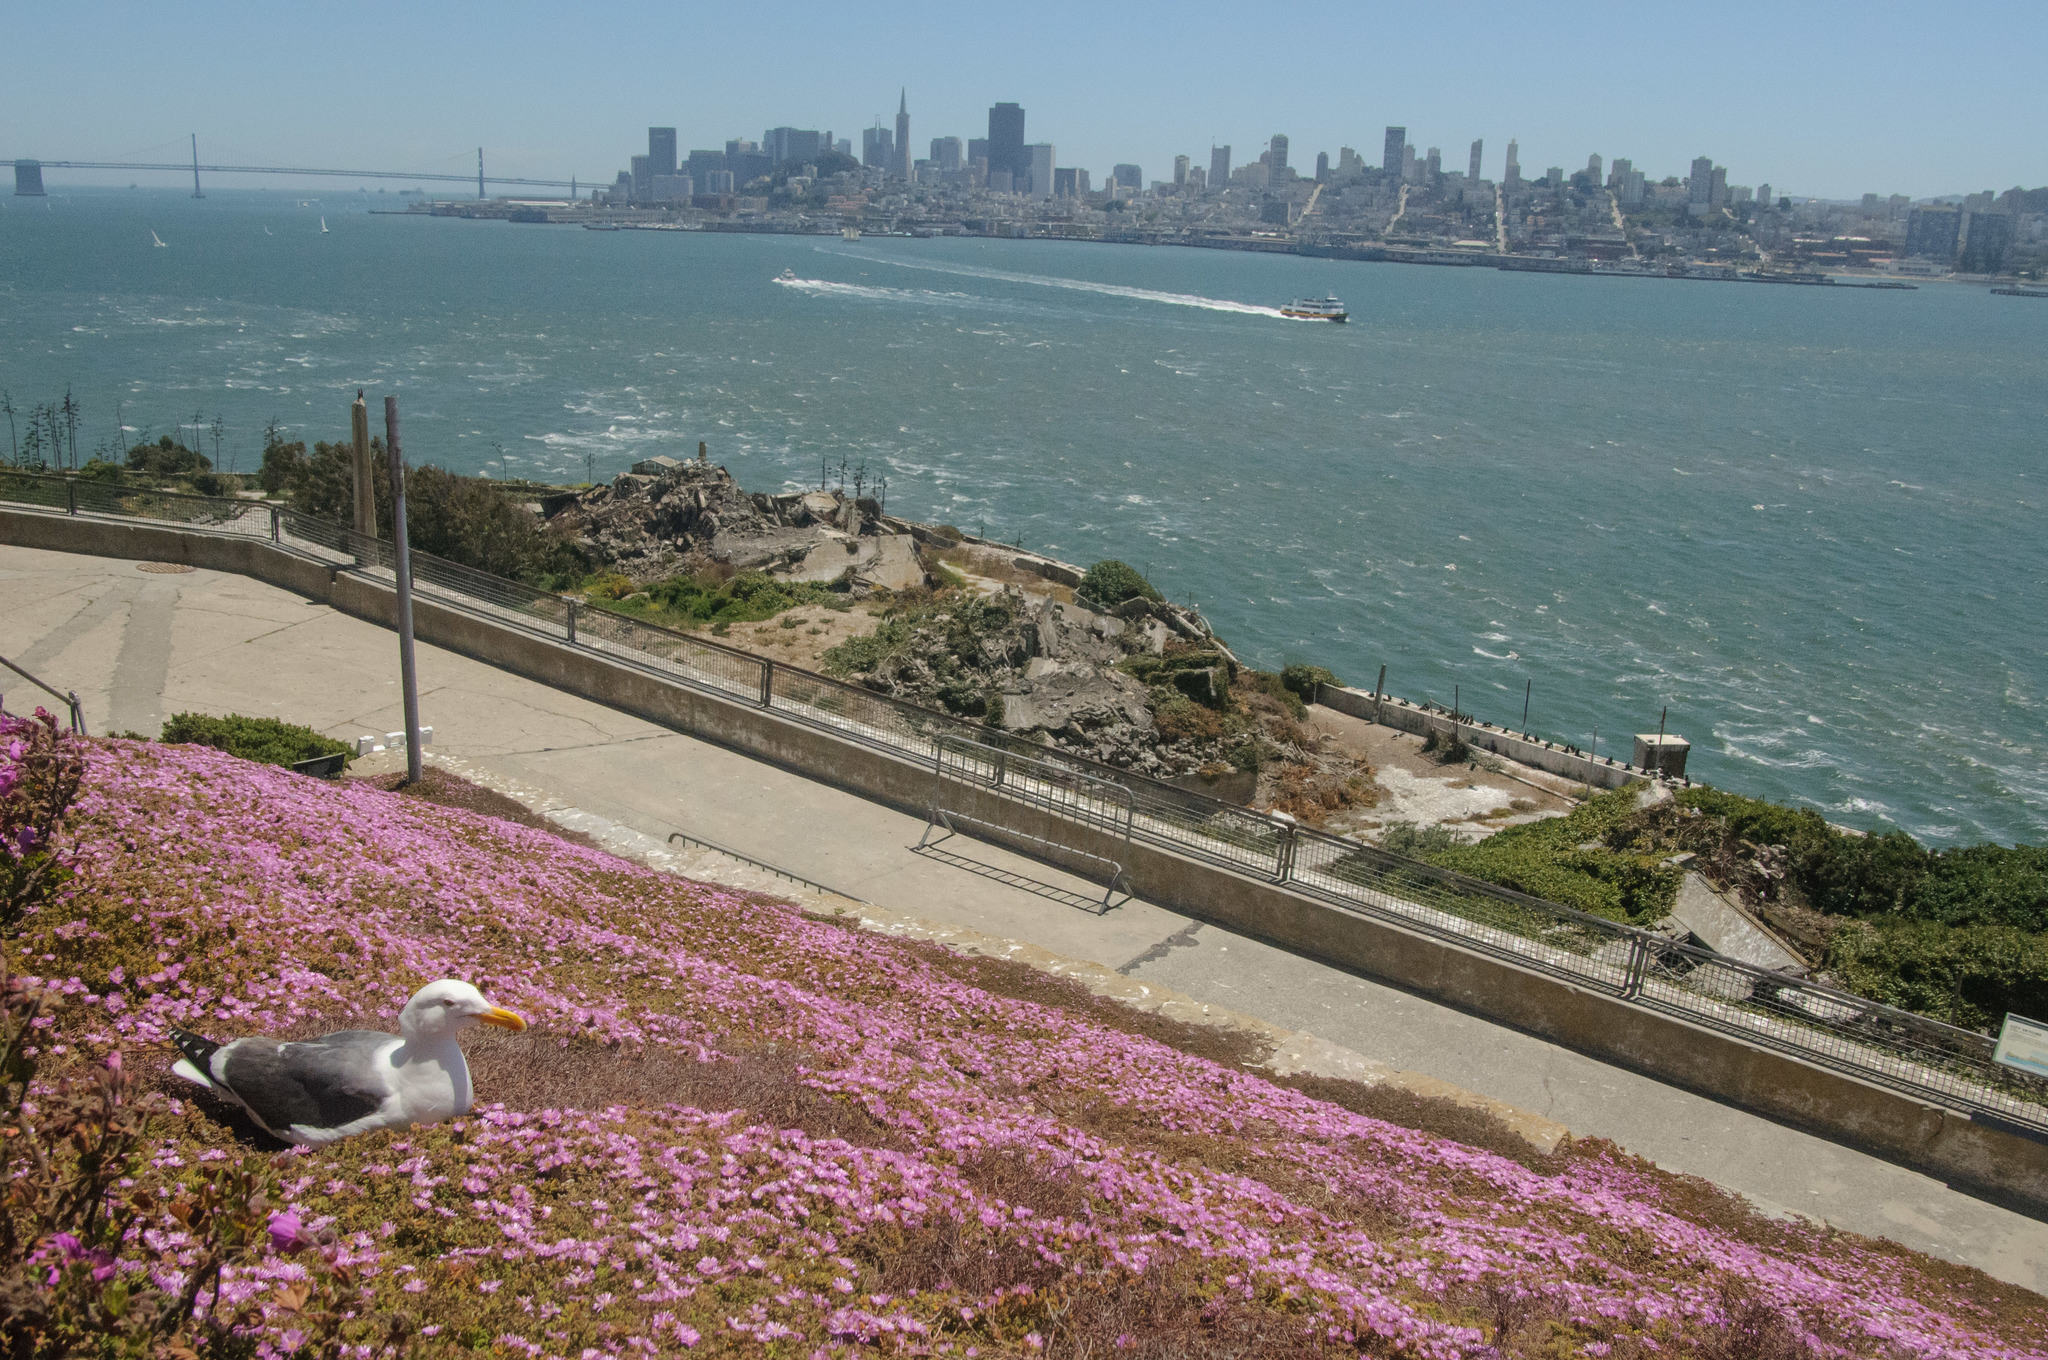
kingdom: Animalia
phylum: Chordata
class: Aves
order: Charadriiformes
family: Laridae
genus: Larus
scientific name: Larus occidentalis
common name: Western gull
